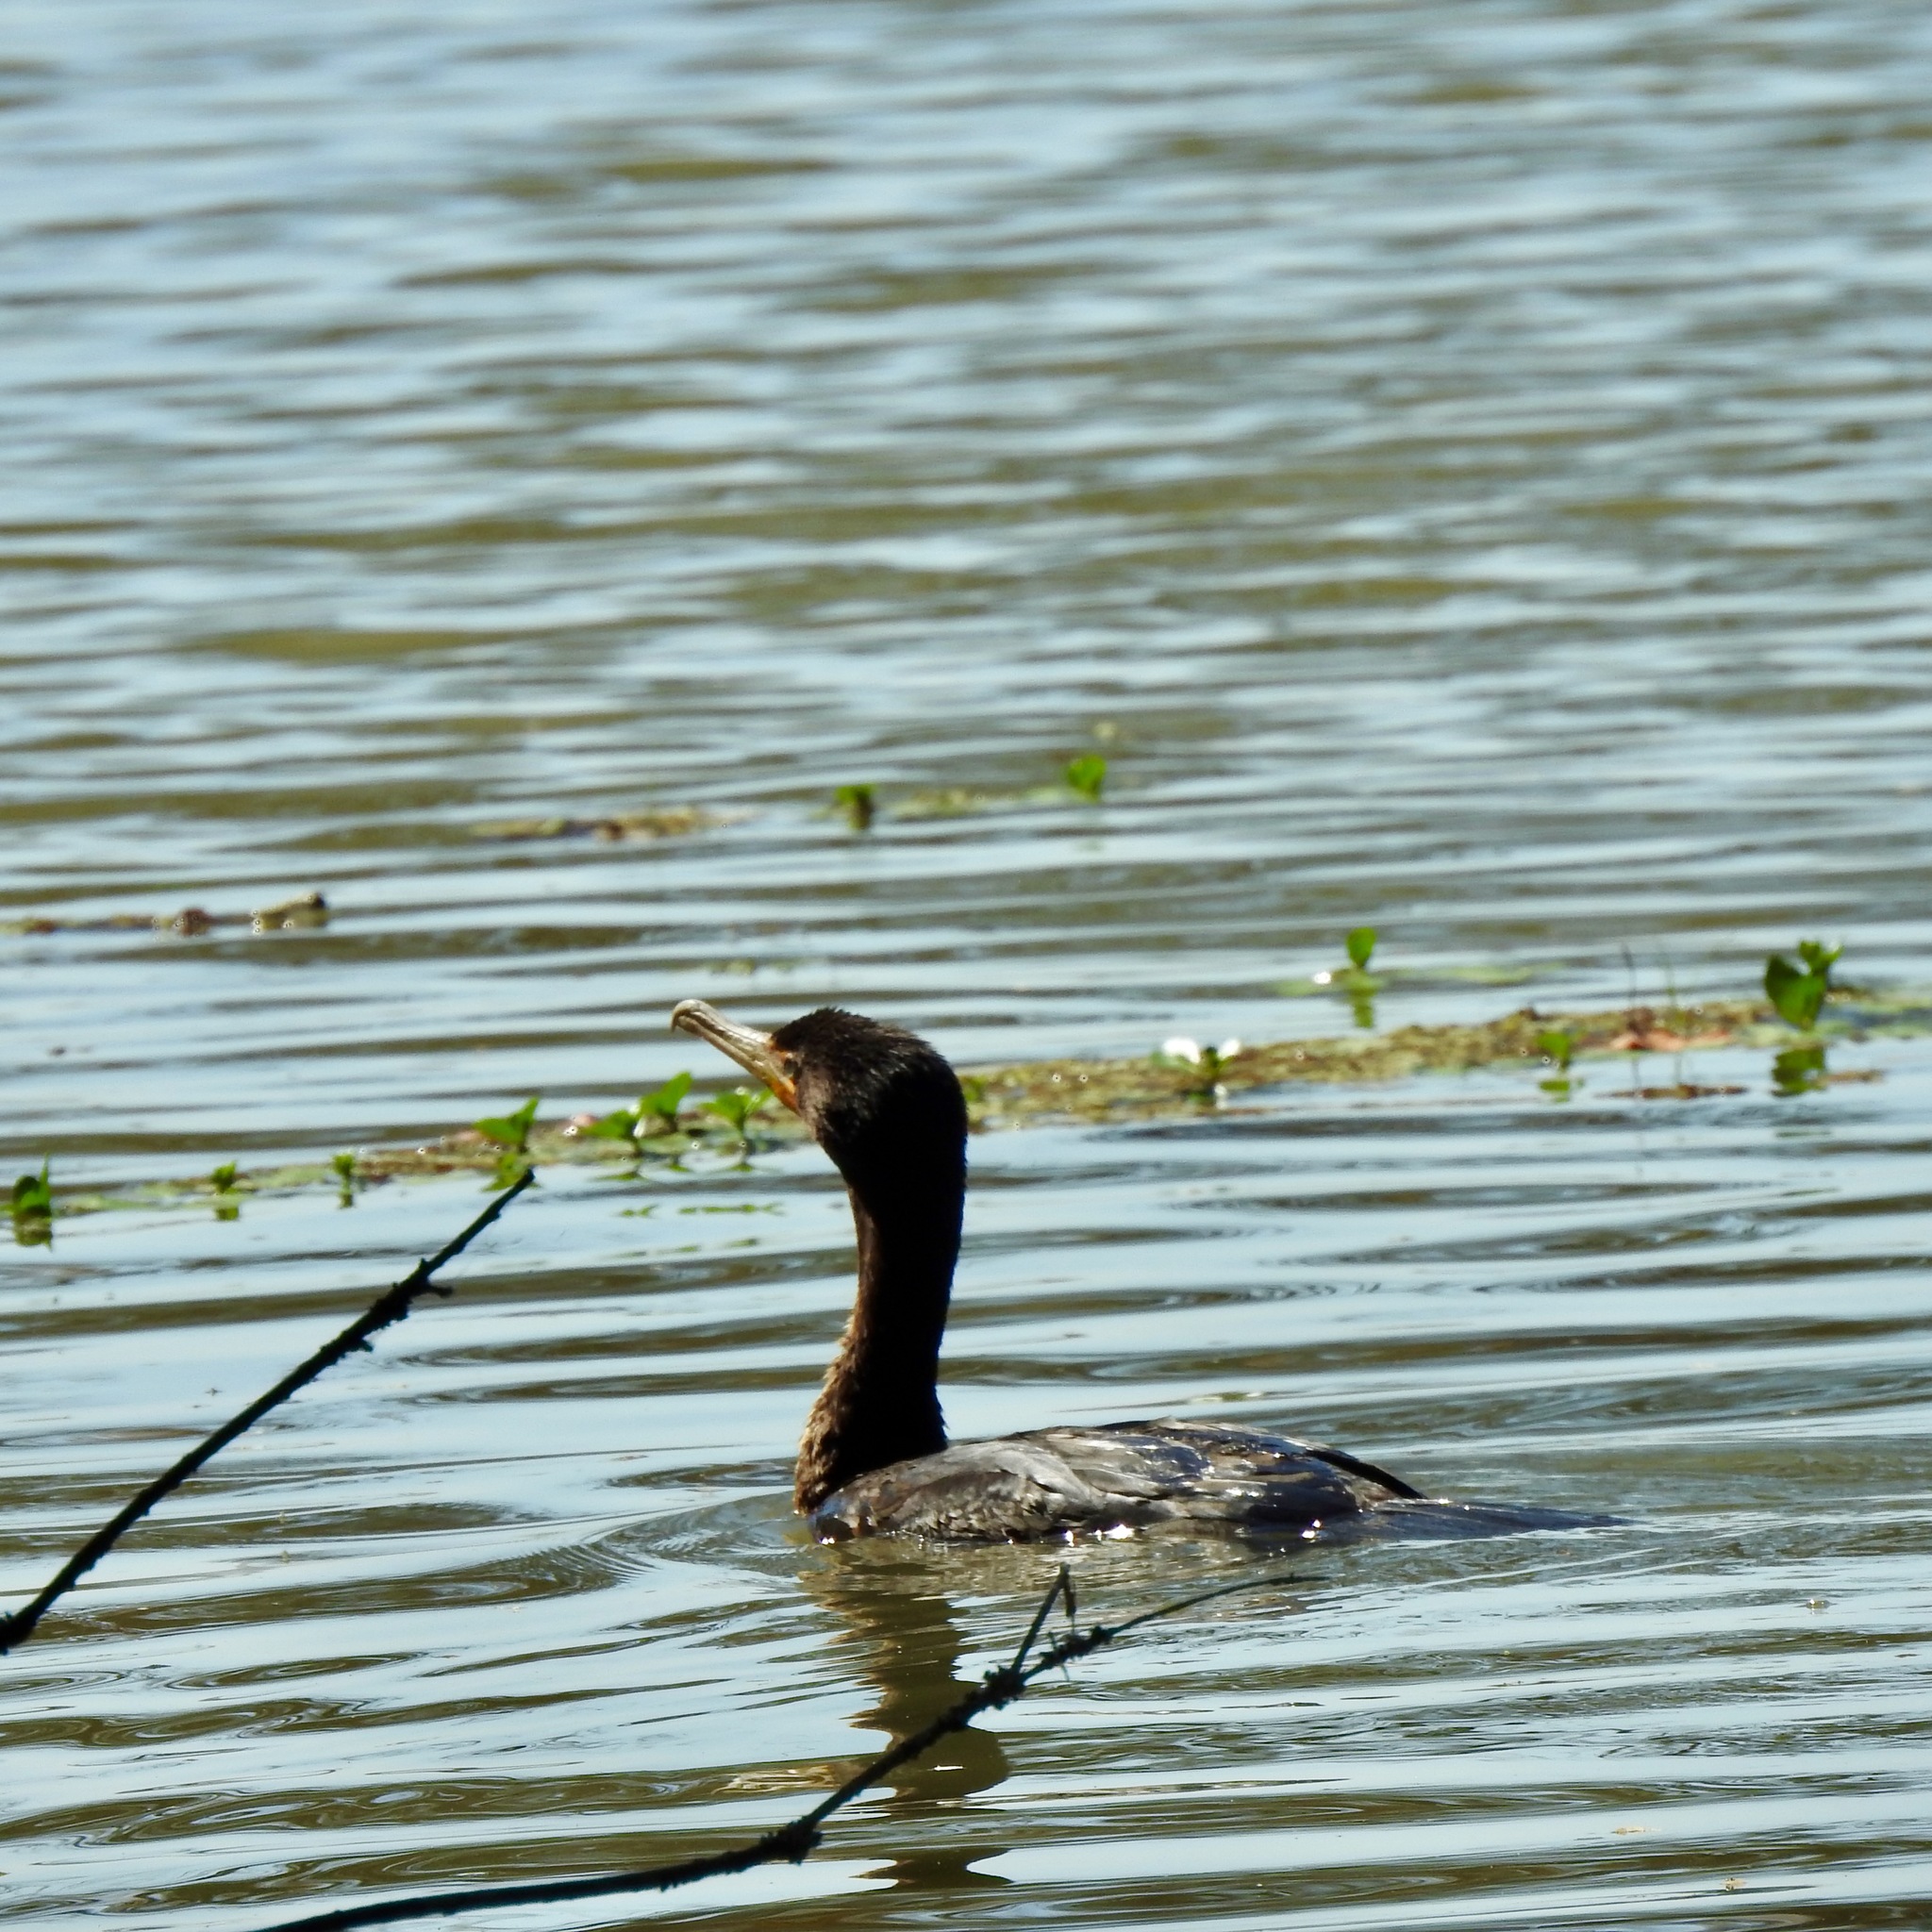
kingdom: Animalia
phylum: Chordata
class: Aves
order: Suliformes
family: Phalacrocoracidae
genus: Phalacrocorax
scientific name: Phalacrocorax auritus
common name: Double-crested cormorant
